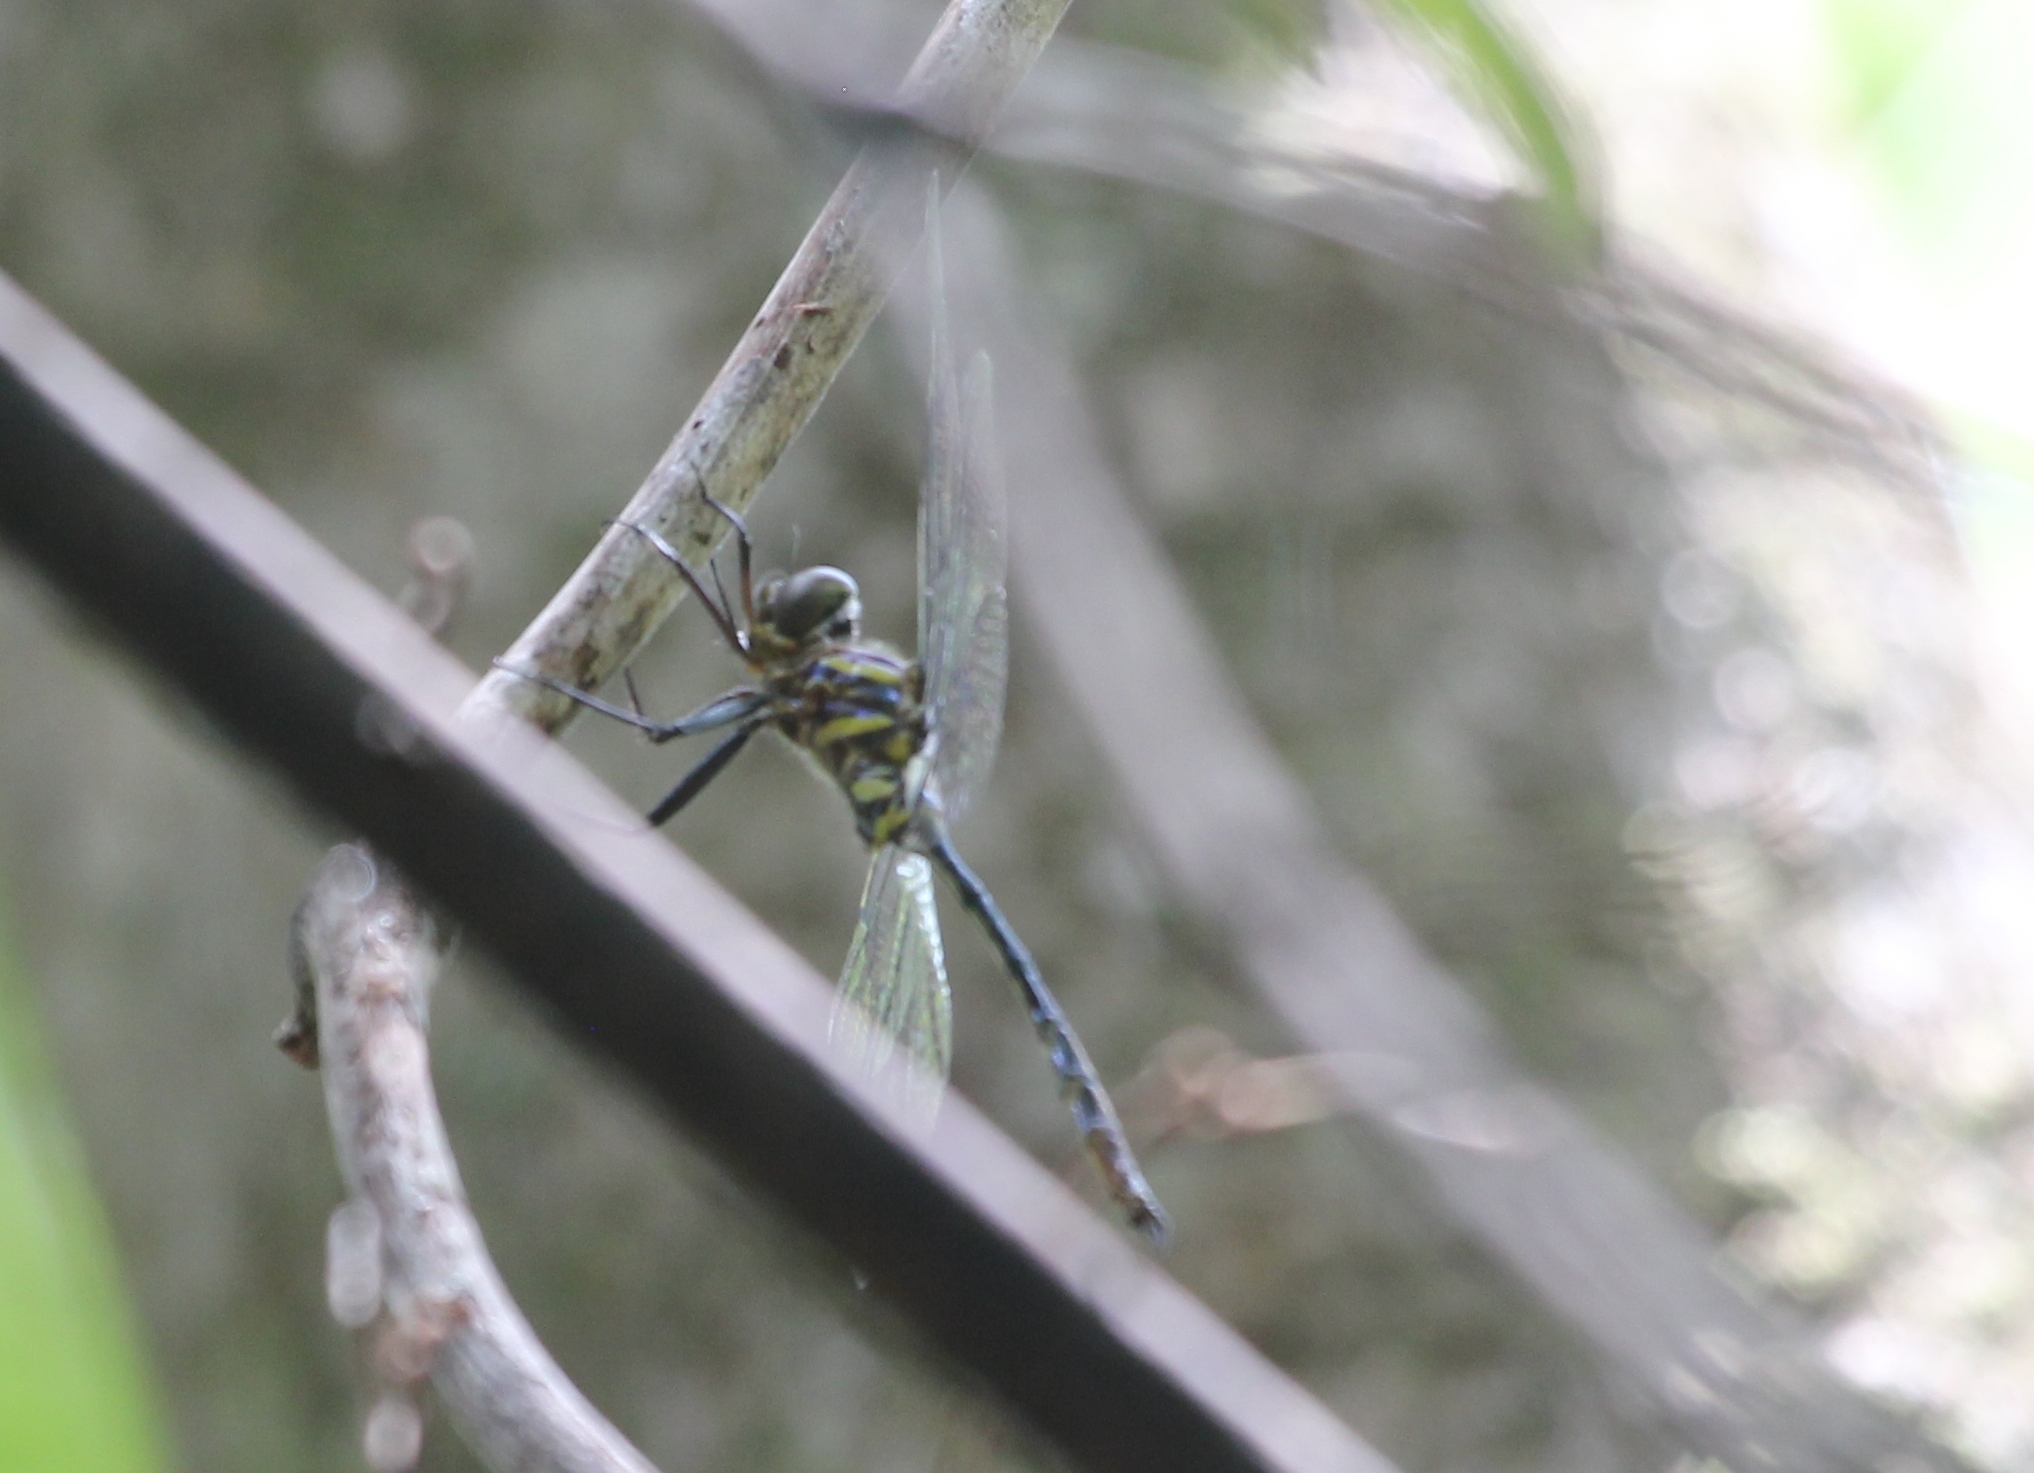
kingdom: Animalia
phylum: Arthropoda
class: Insecta
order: Odonata
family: Corduliidae
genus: Somatochlora
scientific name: Somatochlora provocans
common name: Treetop emerald
